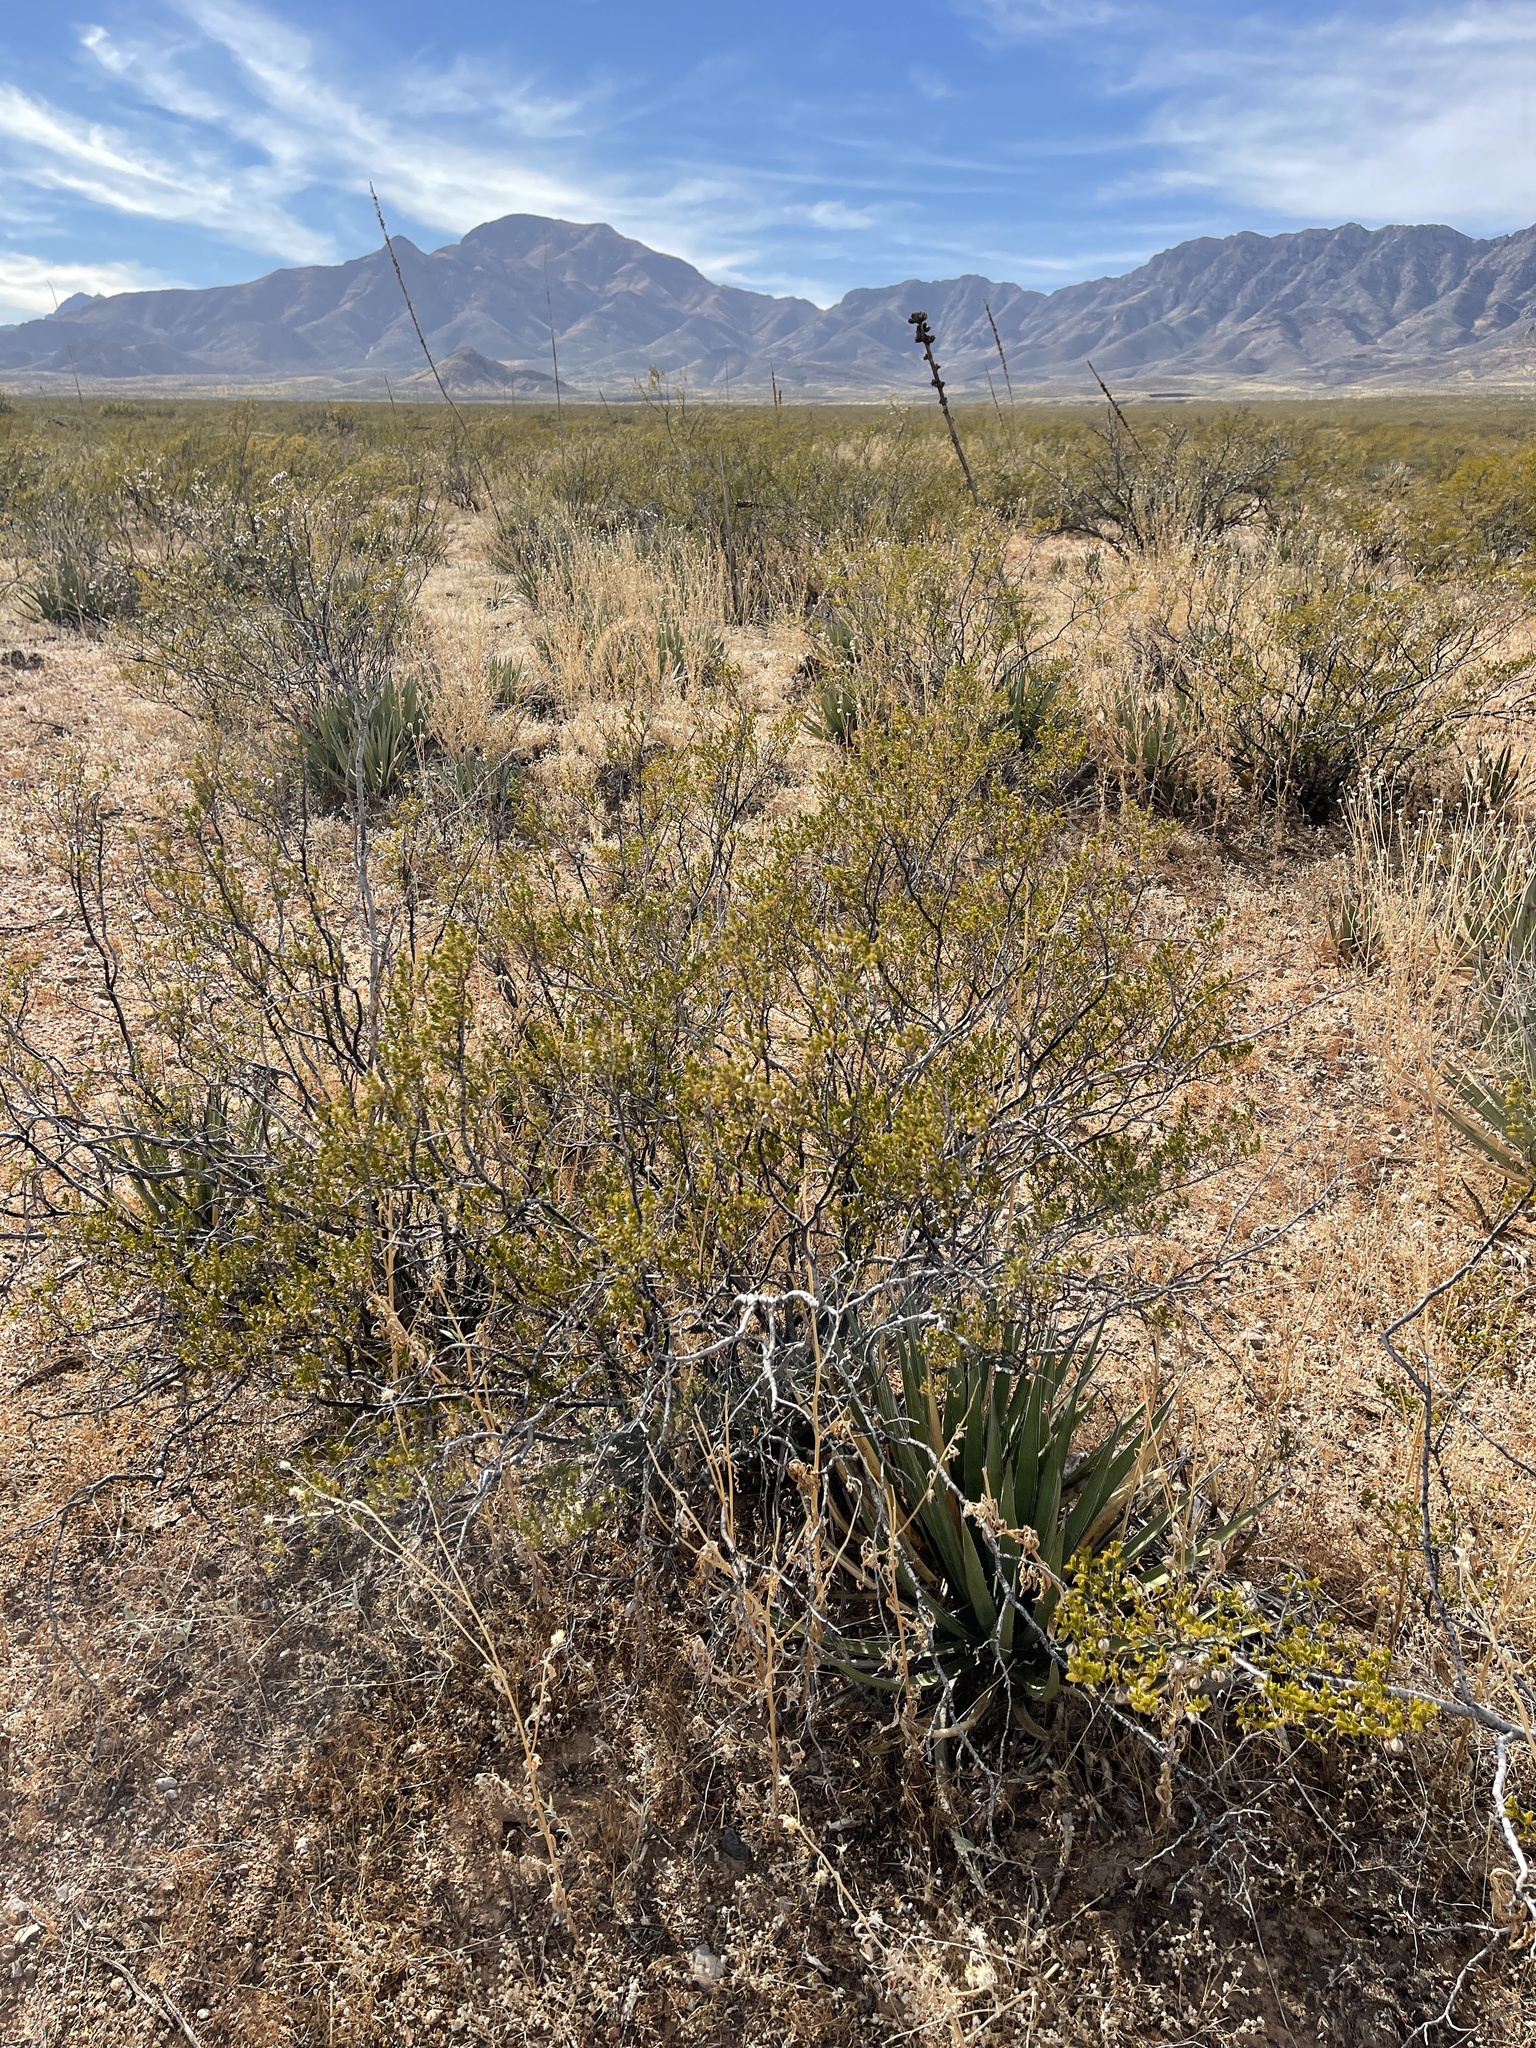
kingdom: Plantae
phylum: Tracheophyta
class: Magnoliopsida
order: Zygophyllales
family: Zygophyllaceae
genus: Larrea
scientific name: Larrea tridentata
